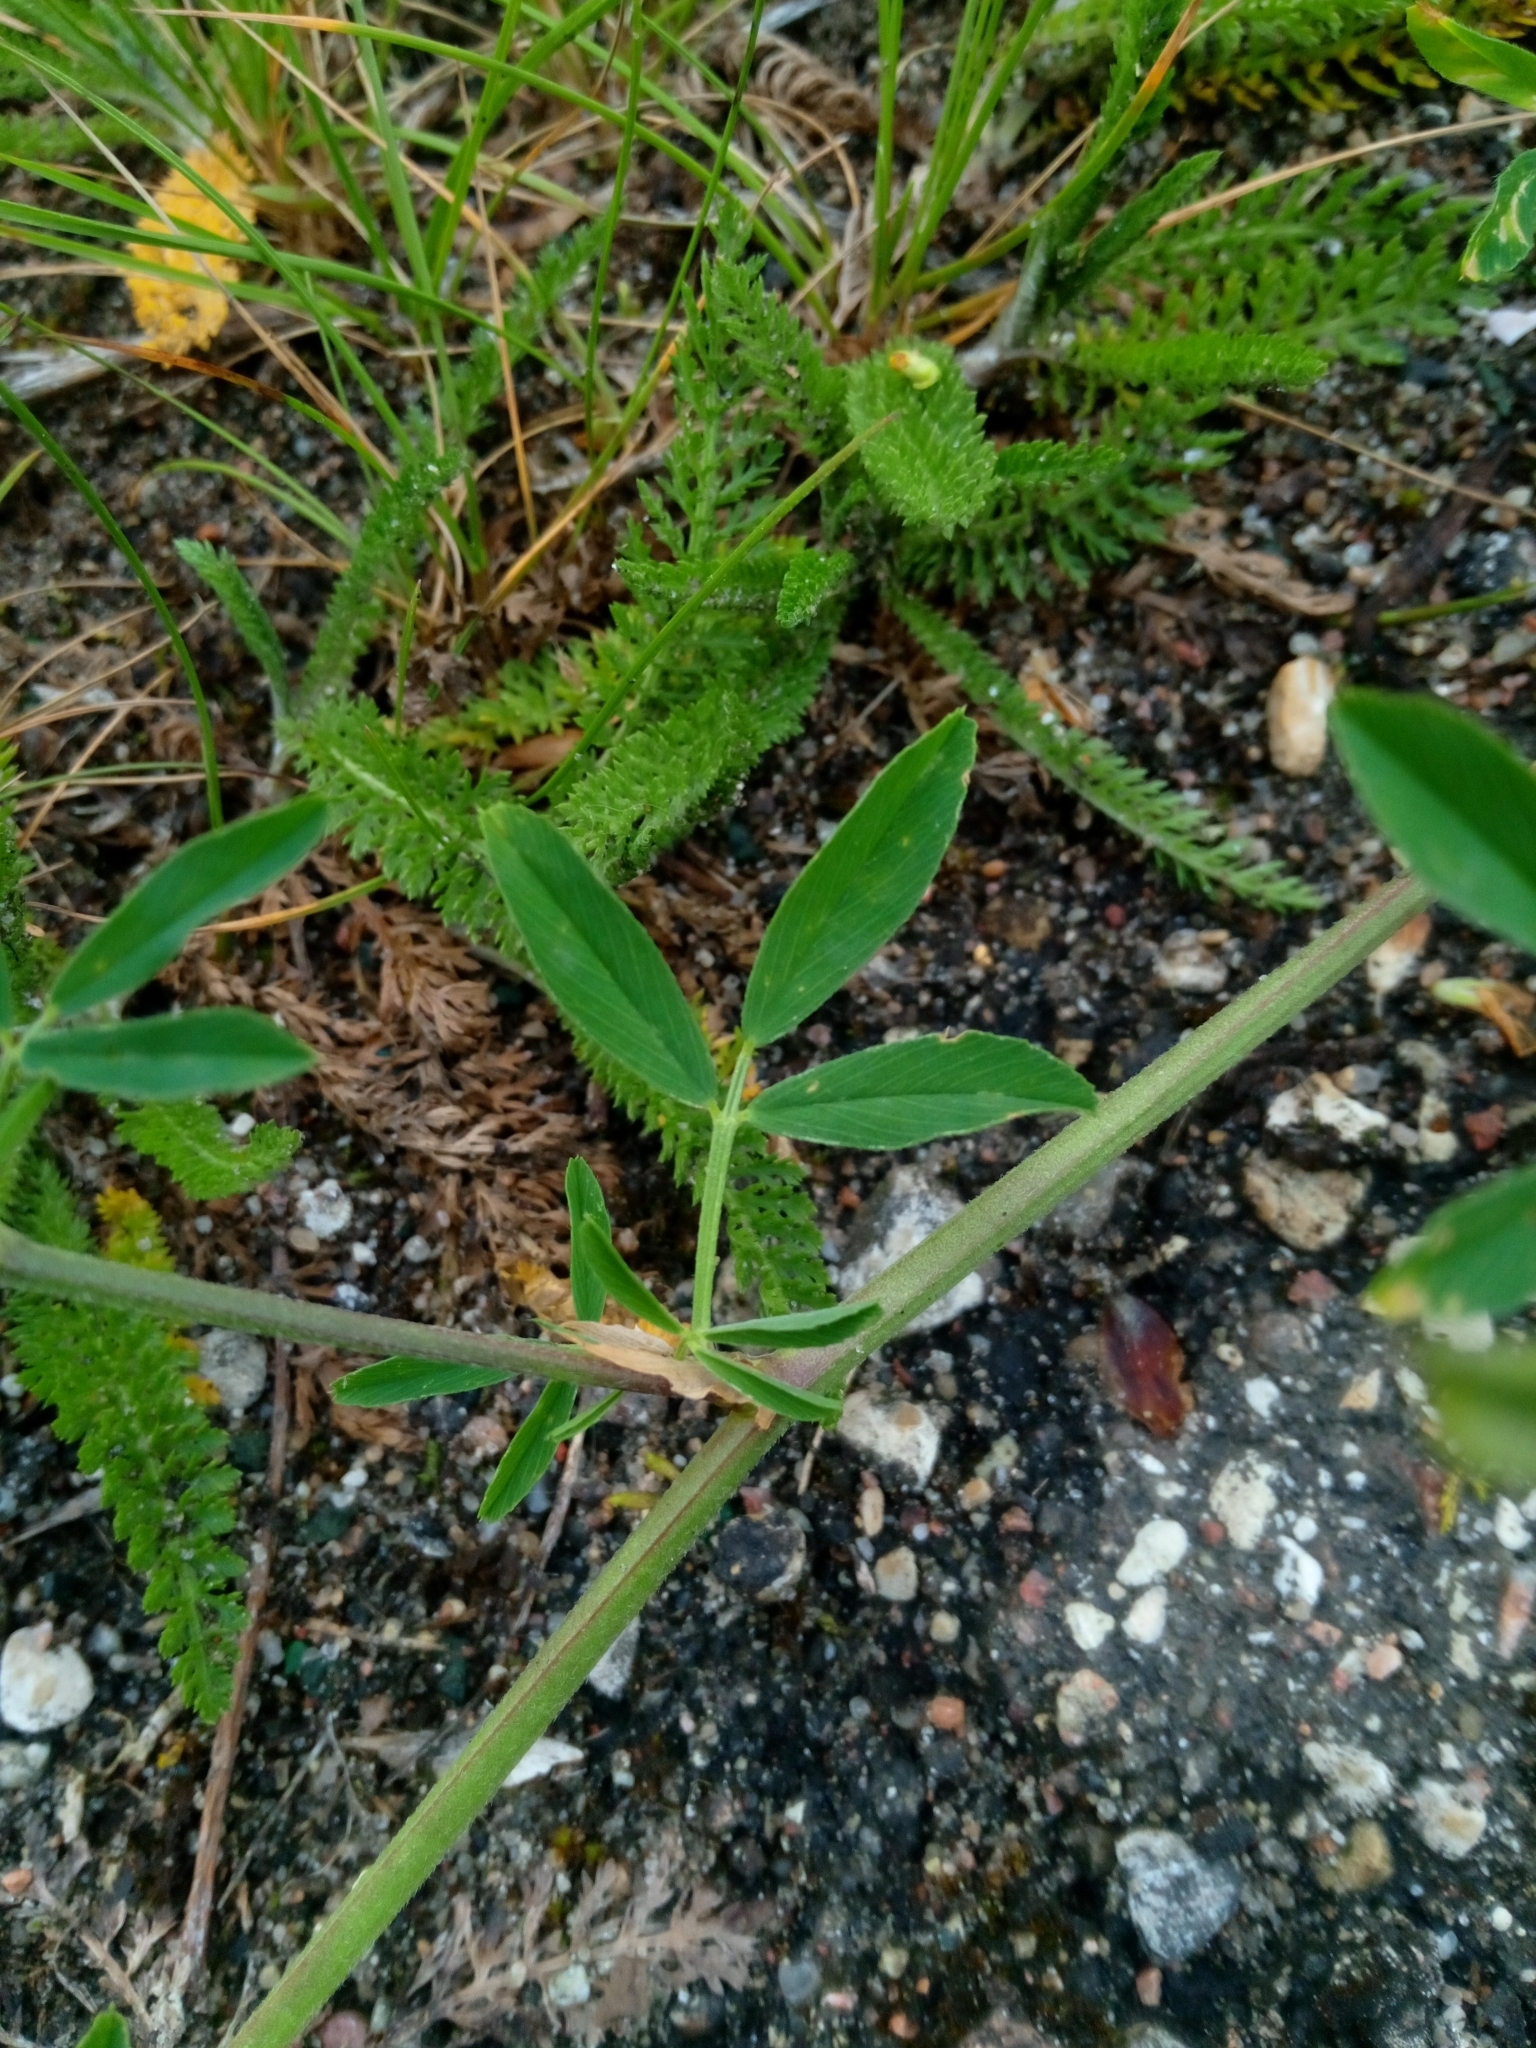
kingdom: Plantae
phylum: Tracheophyta
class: Magnoliopsida
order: Fabales
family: Fabaceae
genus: Medicago
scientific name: Medicago falcata
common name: Sickle medick
